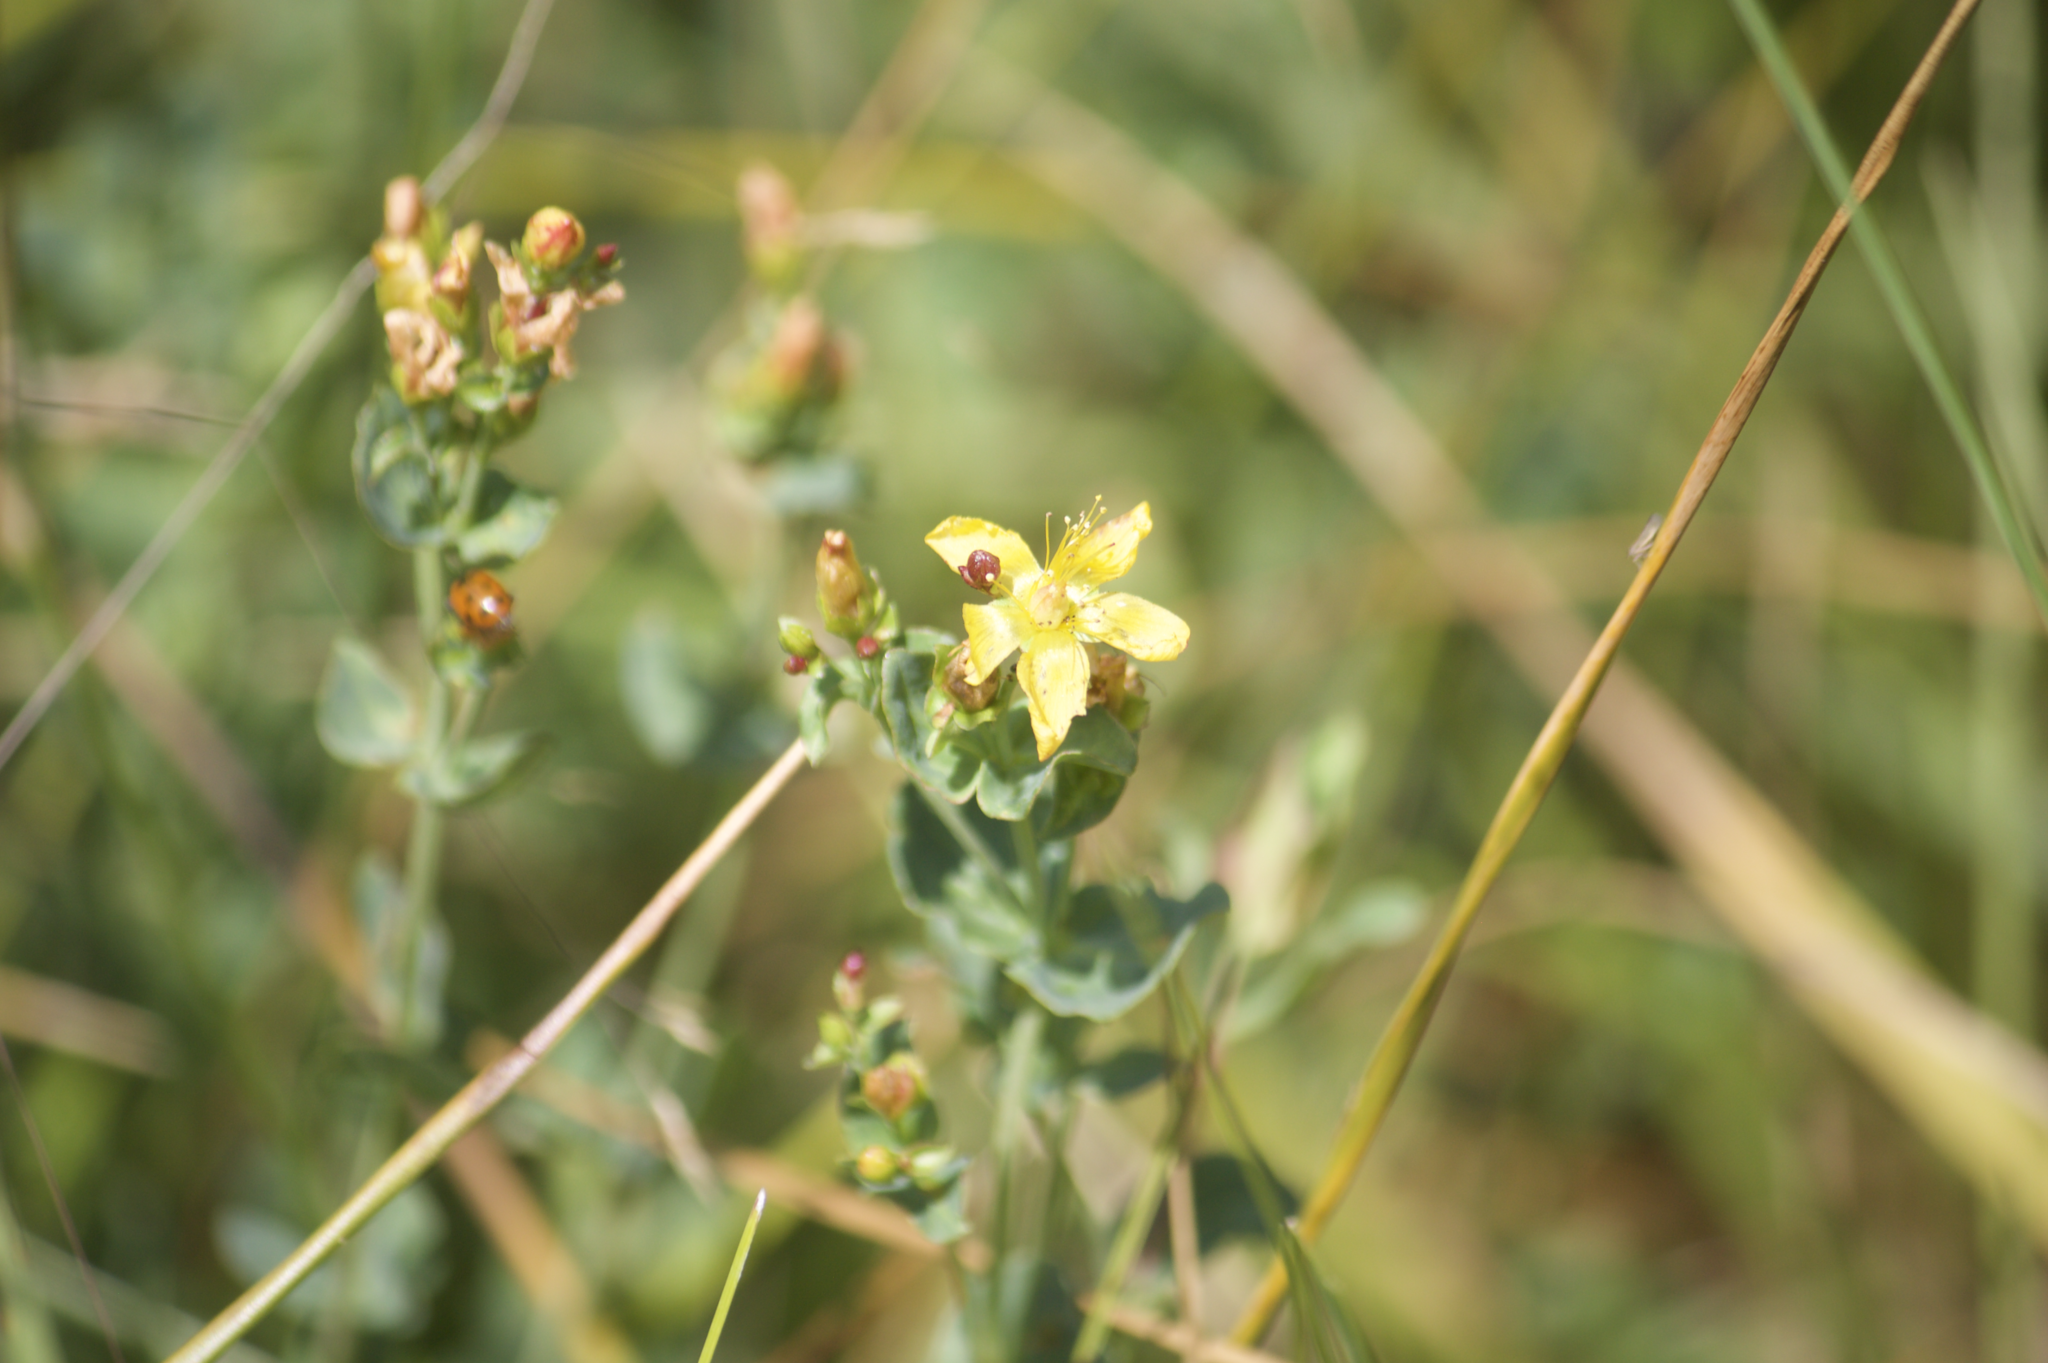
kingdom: Plantae
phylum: Tracheophyta
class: Magnoliopsida
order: Malpighiales
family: Hypericaceae
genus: Hypericum
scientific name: Hypericum scouleri
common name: Scouler's st. john's-wort
